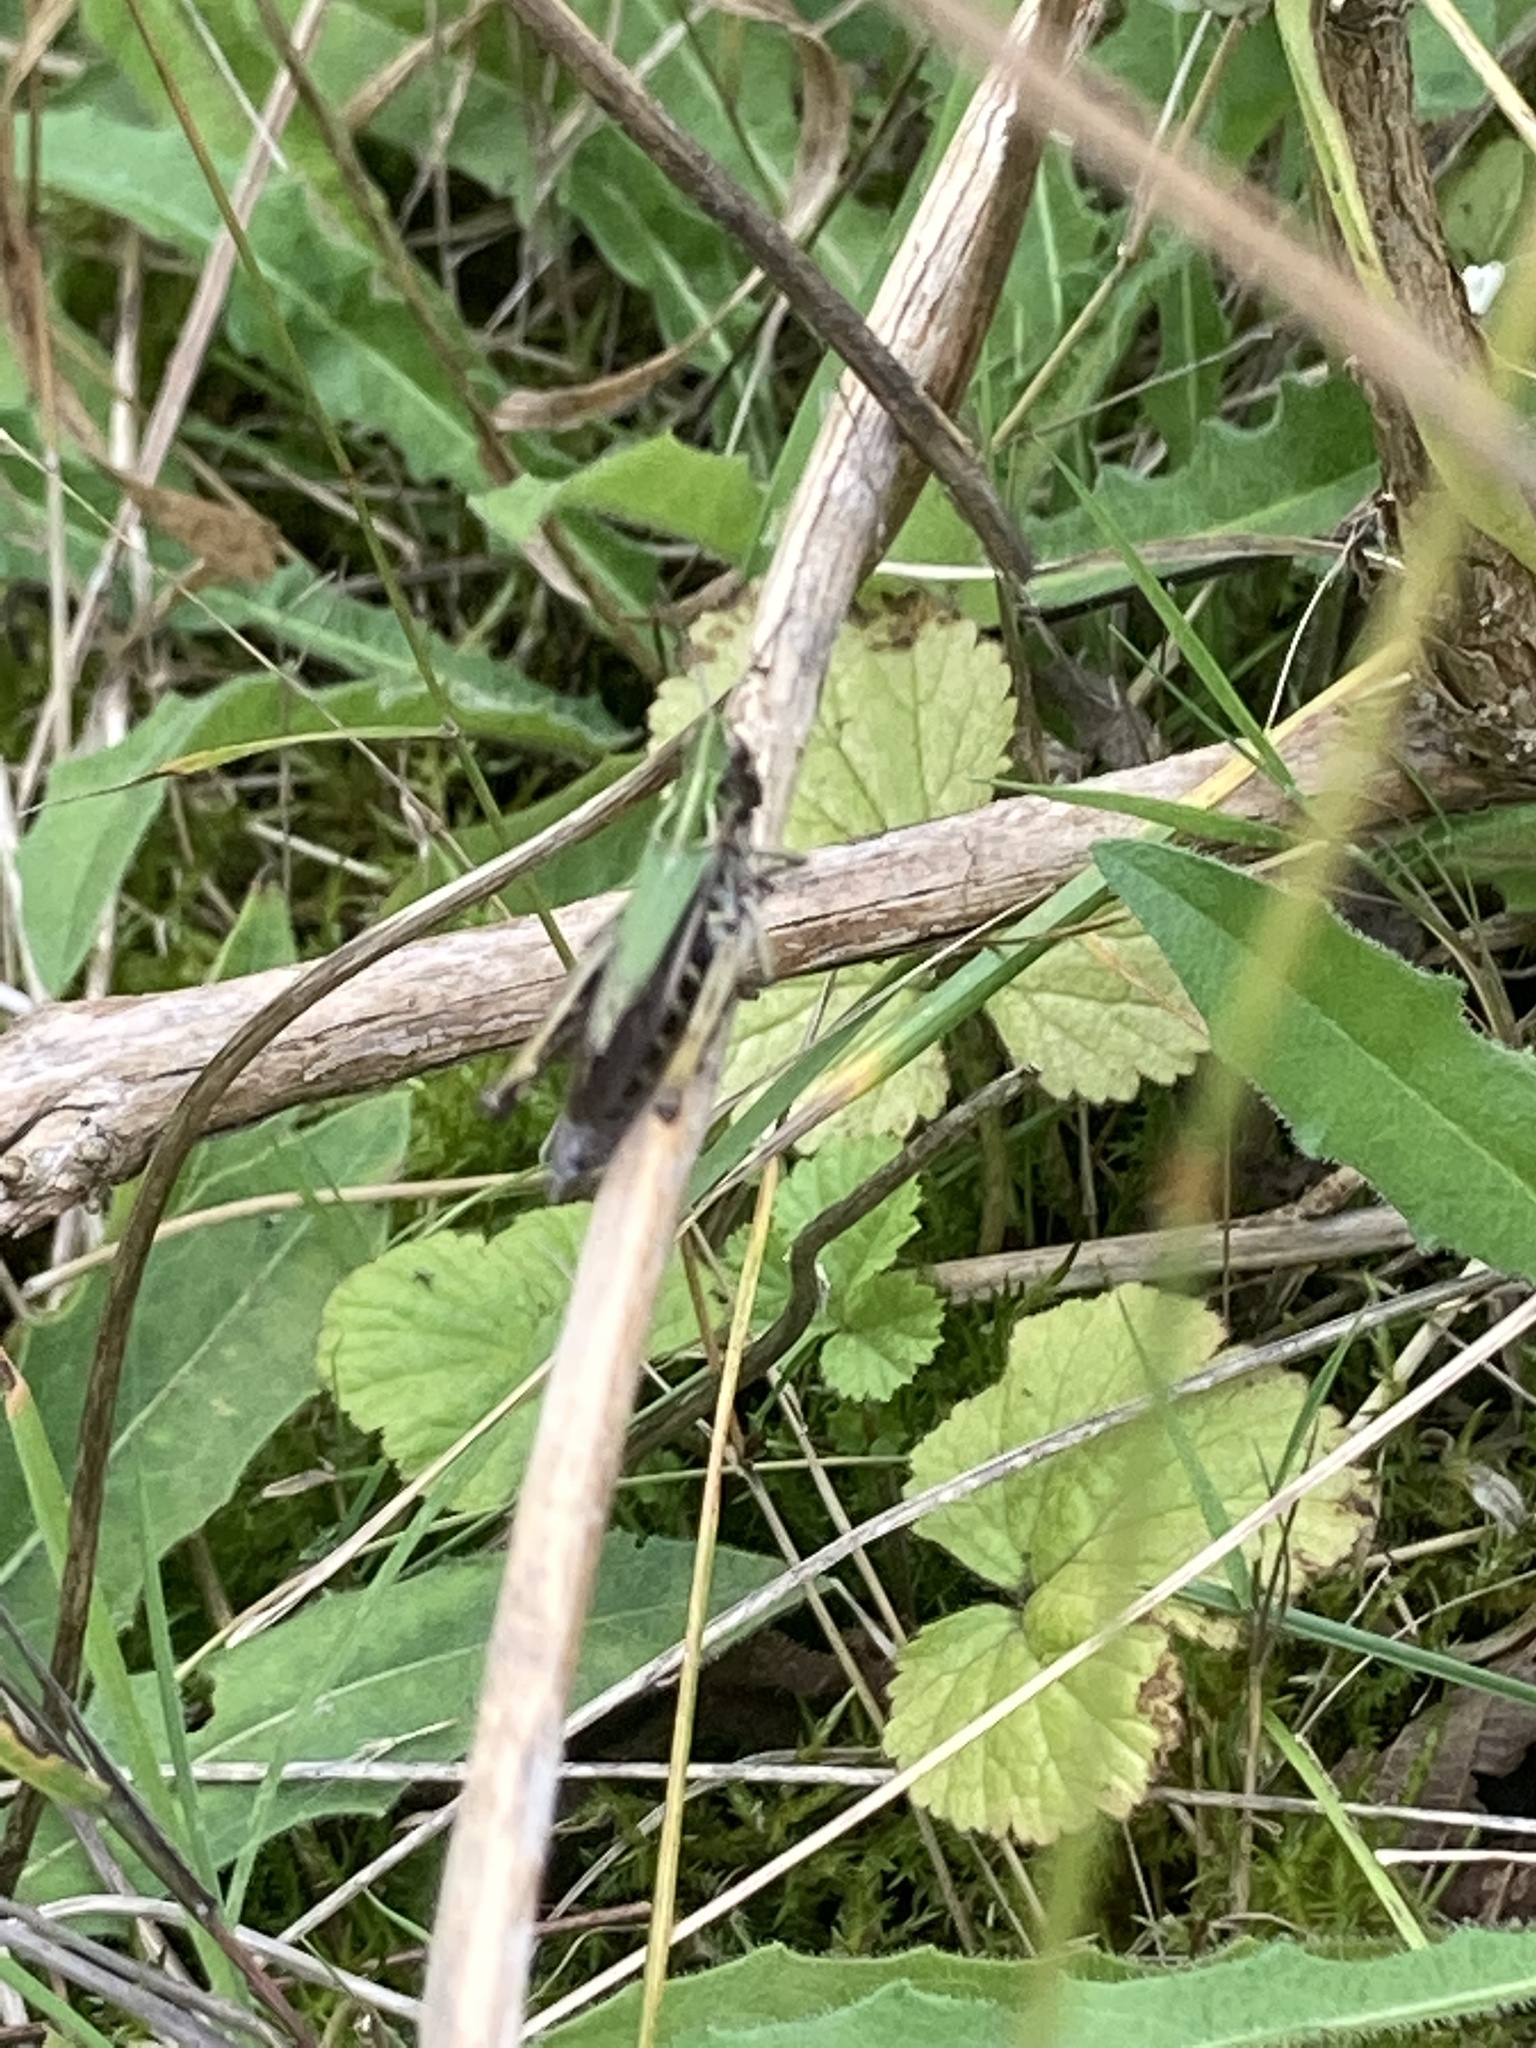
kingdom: Animalia
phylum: Arthropoda
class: Insecta
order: Orthoptera
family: Acrididae
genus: Omocestus
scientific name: Omocestus viridulus
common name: Common green grasshopper
